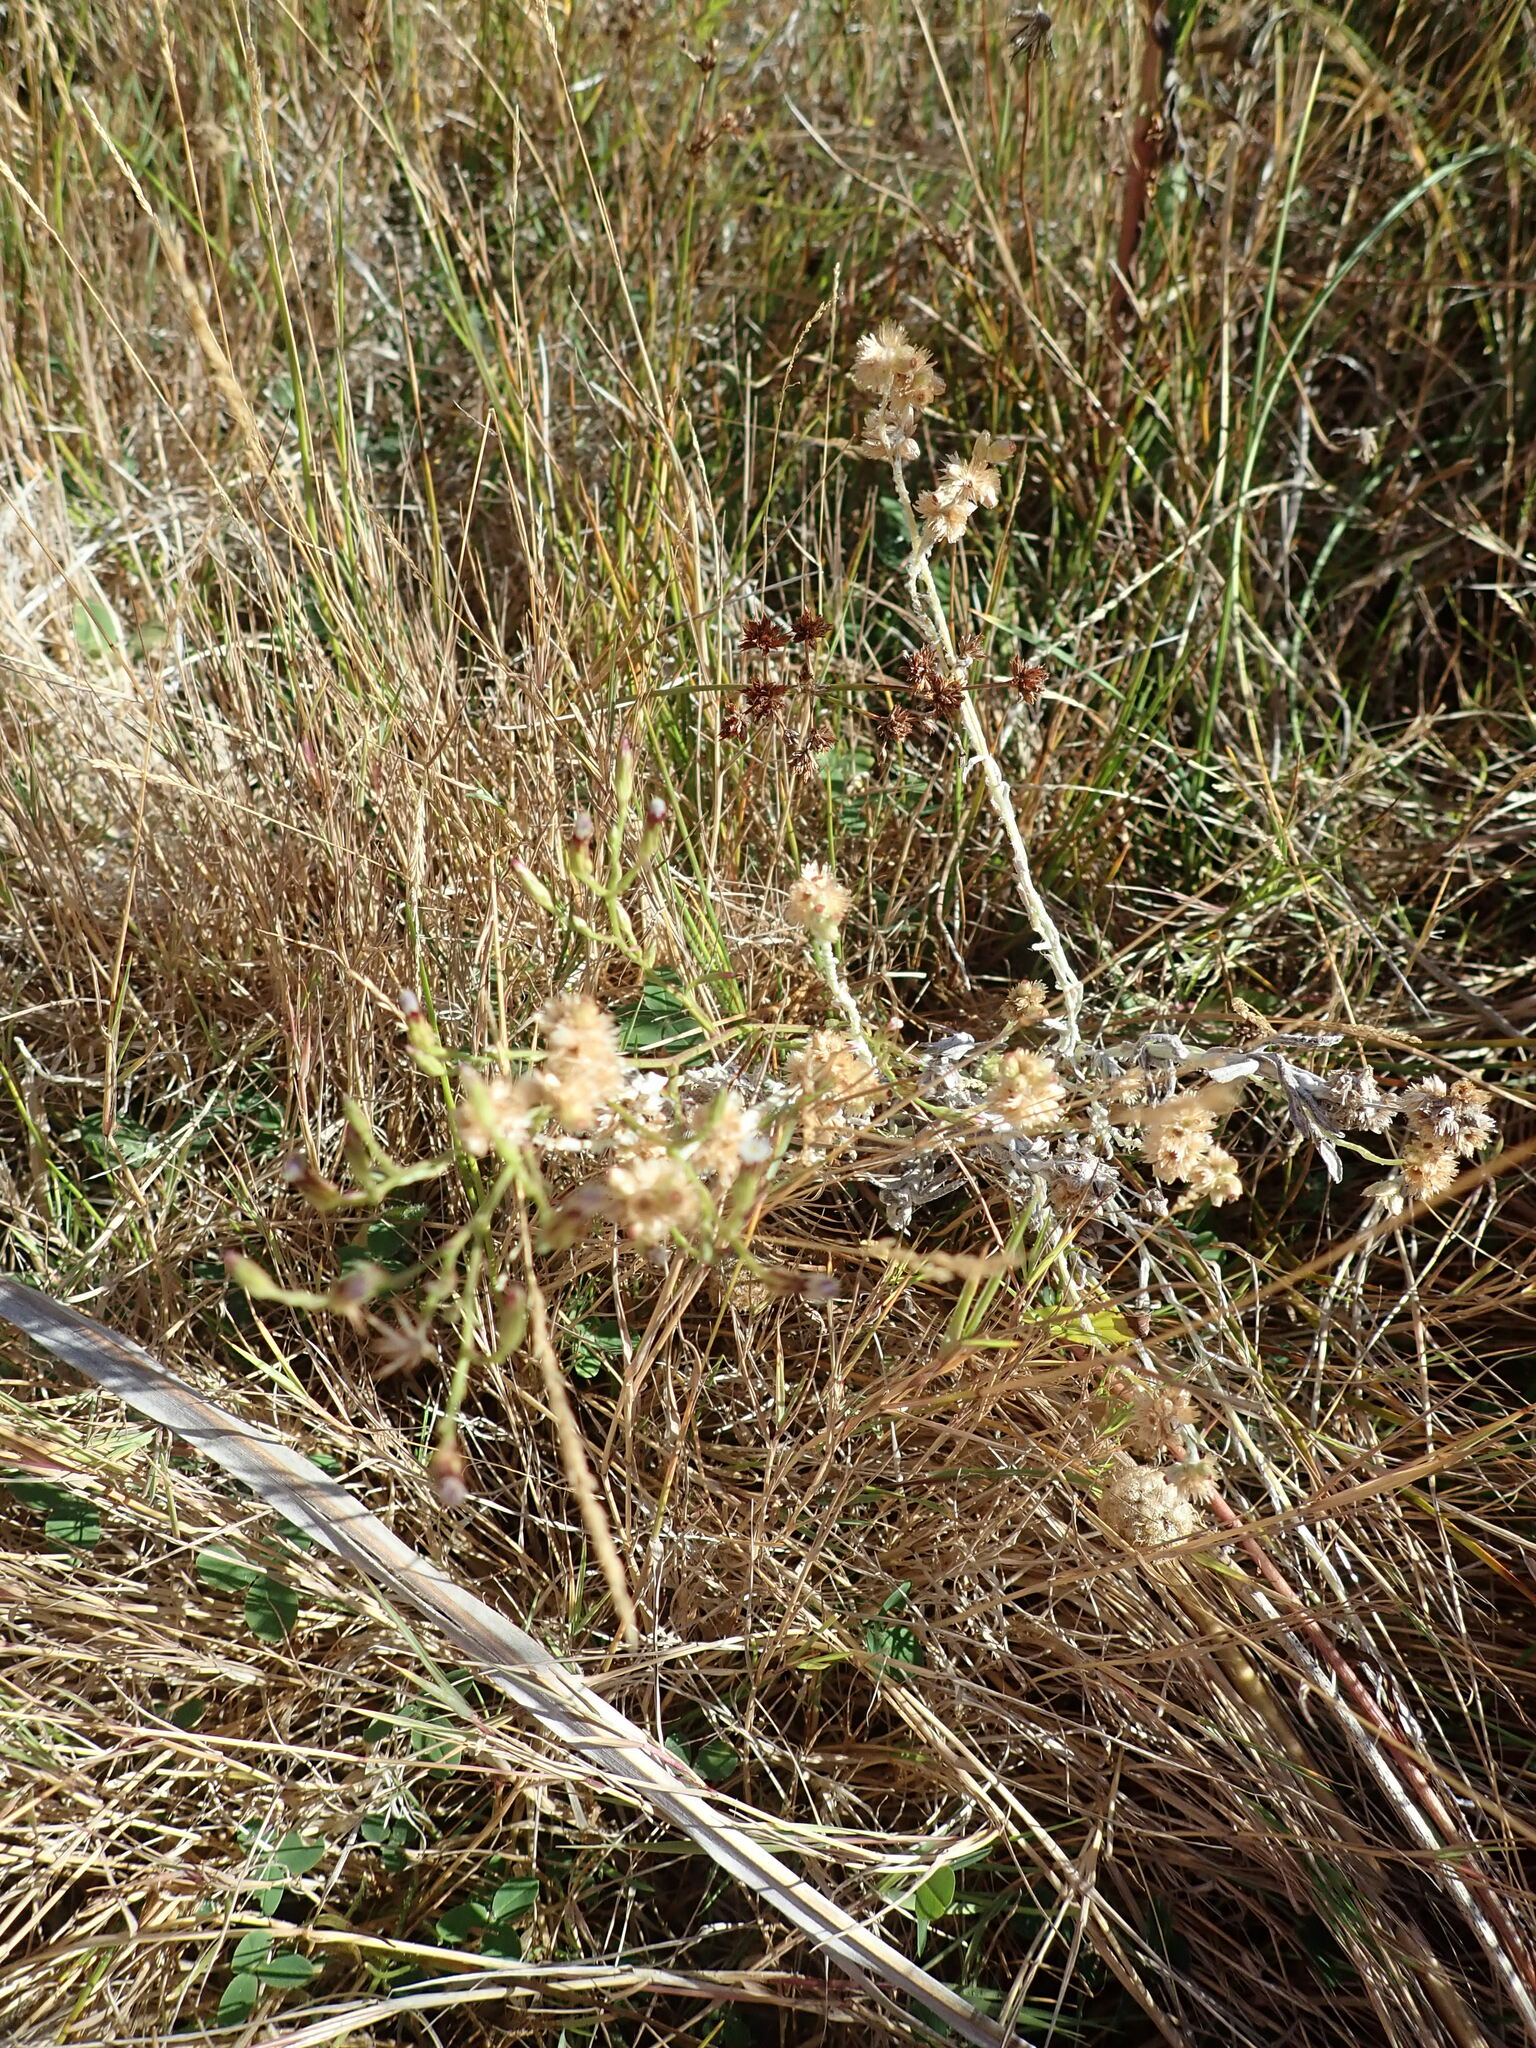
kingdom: Plantae
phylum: Tracheophyta
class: Magnoliopsida
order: Asterales
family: Asteraceae
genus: Helichrysum
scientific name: Helichrysum luteoalbum
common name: Daisy
